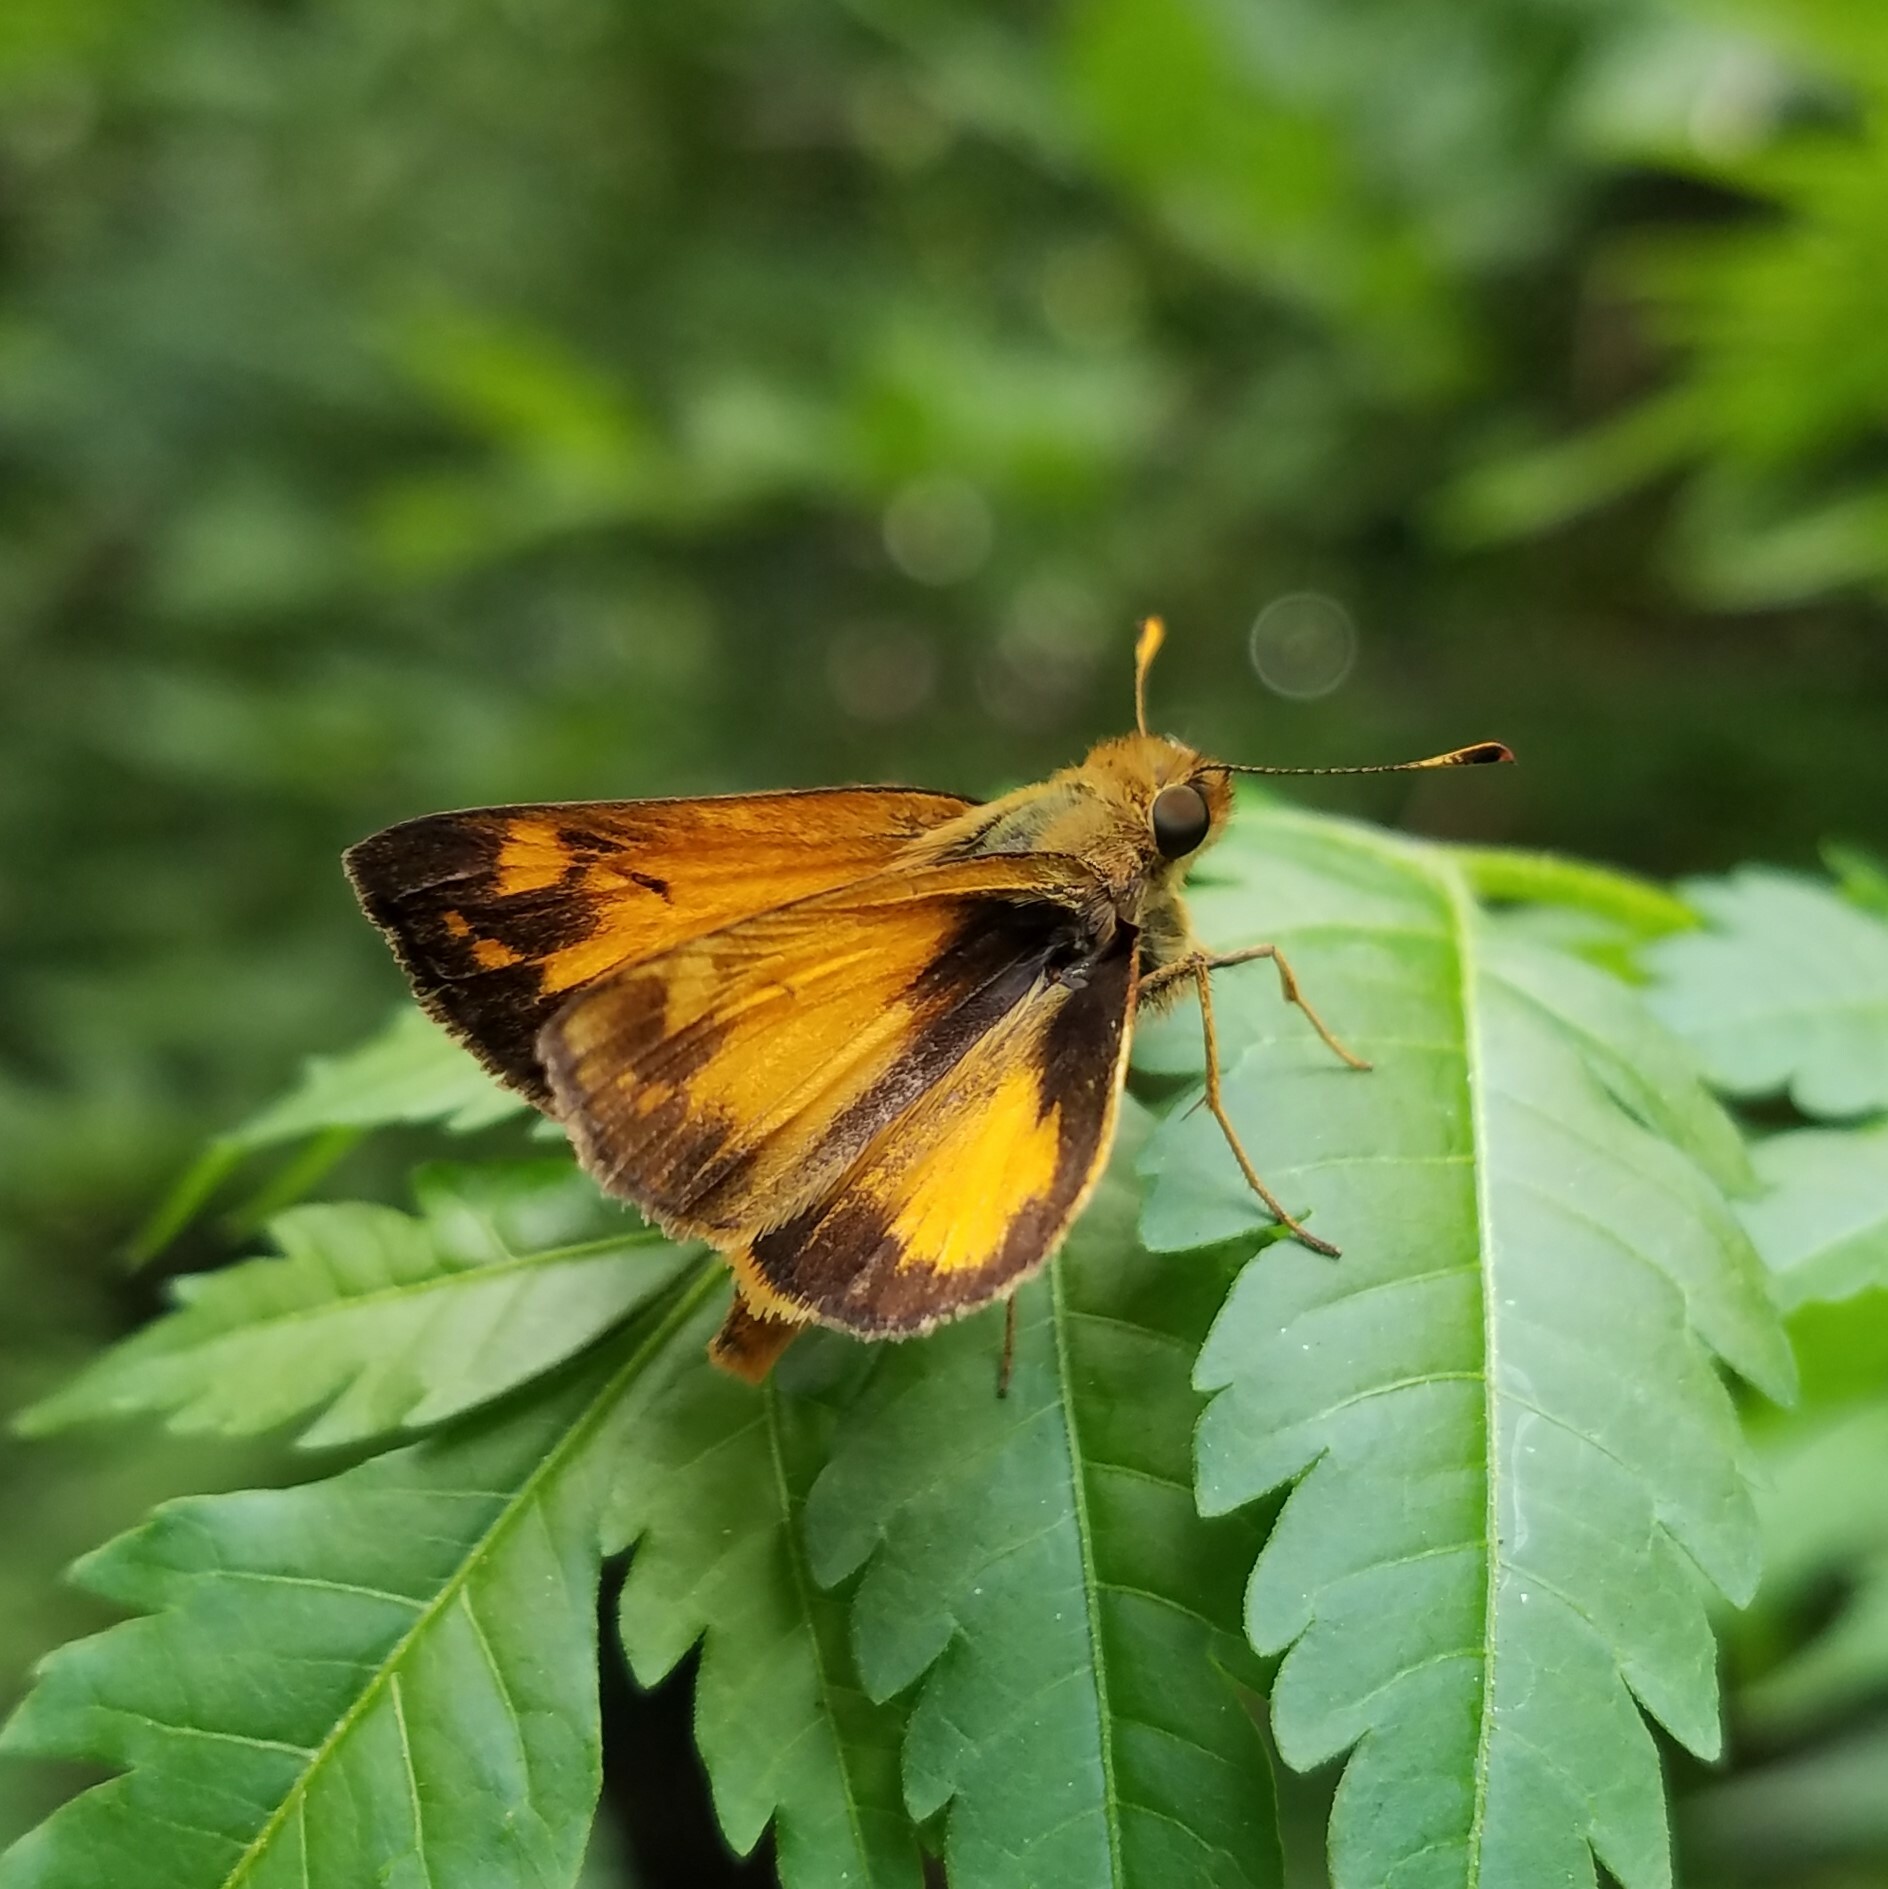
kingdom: Animalia
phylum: Arthropoda
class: Insecta
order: Lepidoptera
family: Hesperiidae
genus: Lon
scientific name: Lon zabulon
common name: Zabulon skipper
